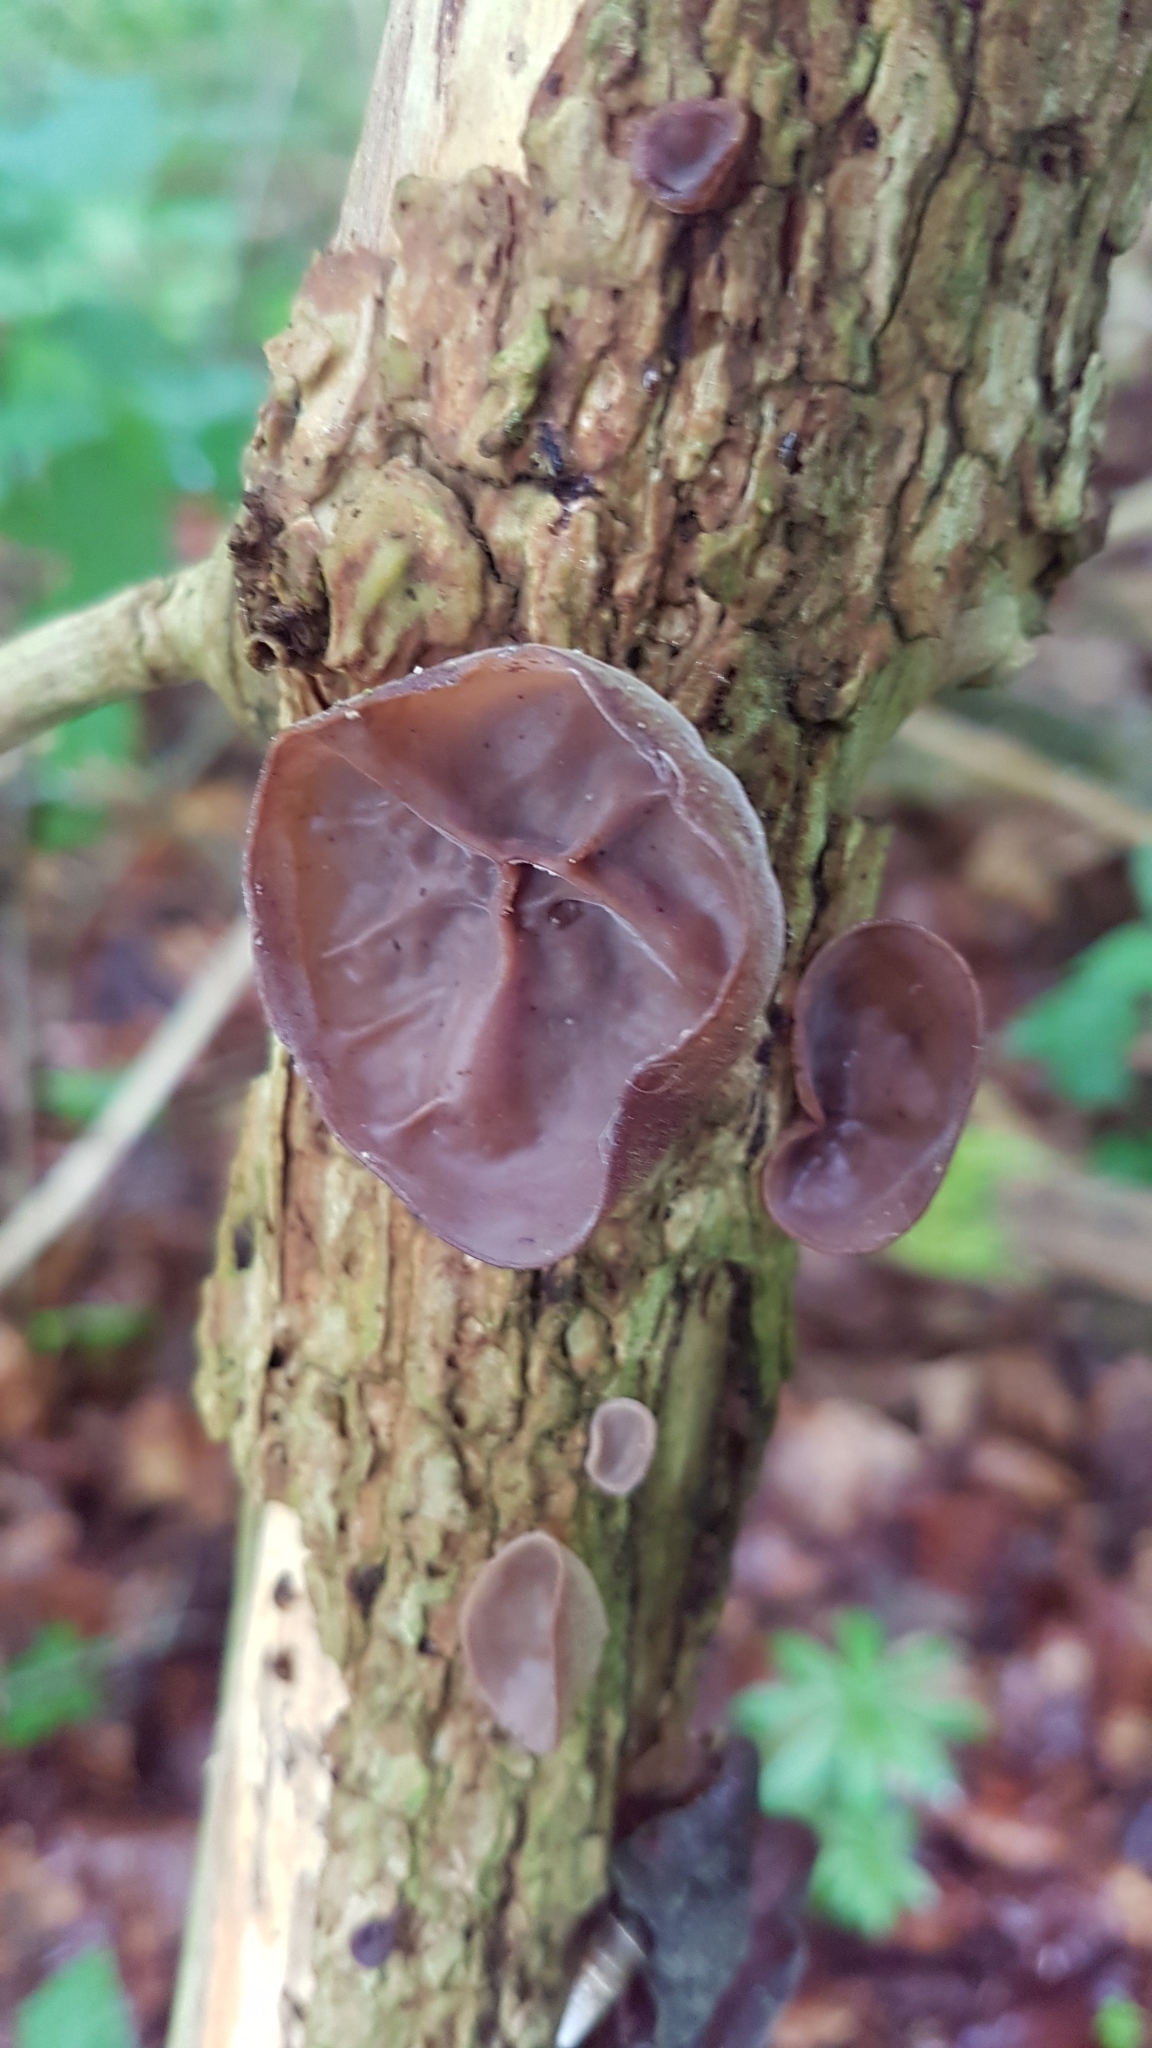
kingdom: Fungi
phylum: Basidiomycota
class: Agaricomycetes
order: Auriculariales
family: Auriculariaceae
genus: Auricularia
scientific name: Auricularia auricula-judae
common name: Jelly ear
